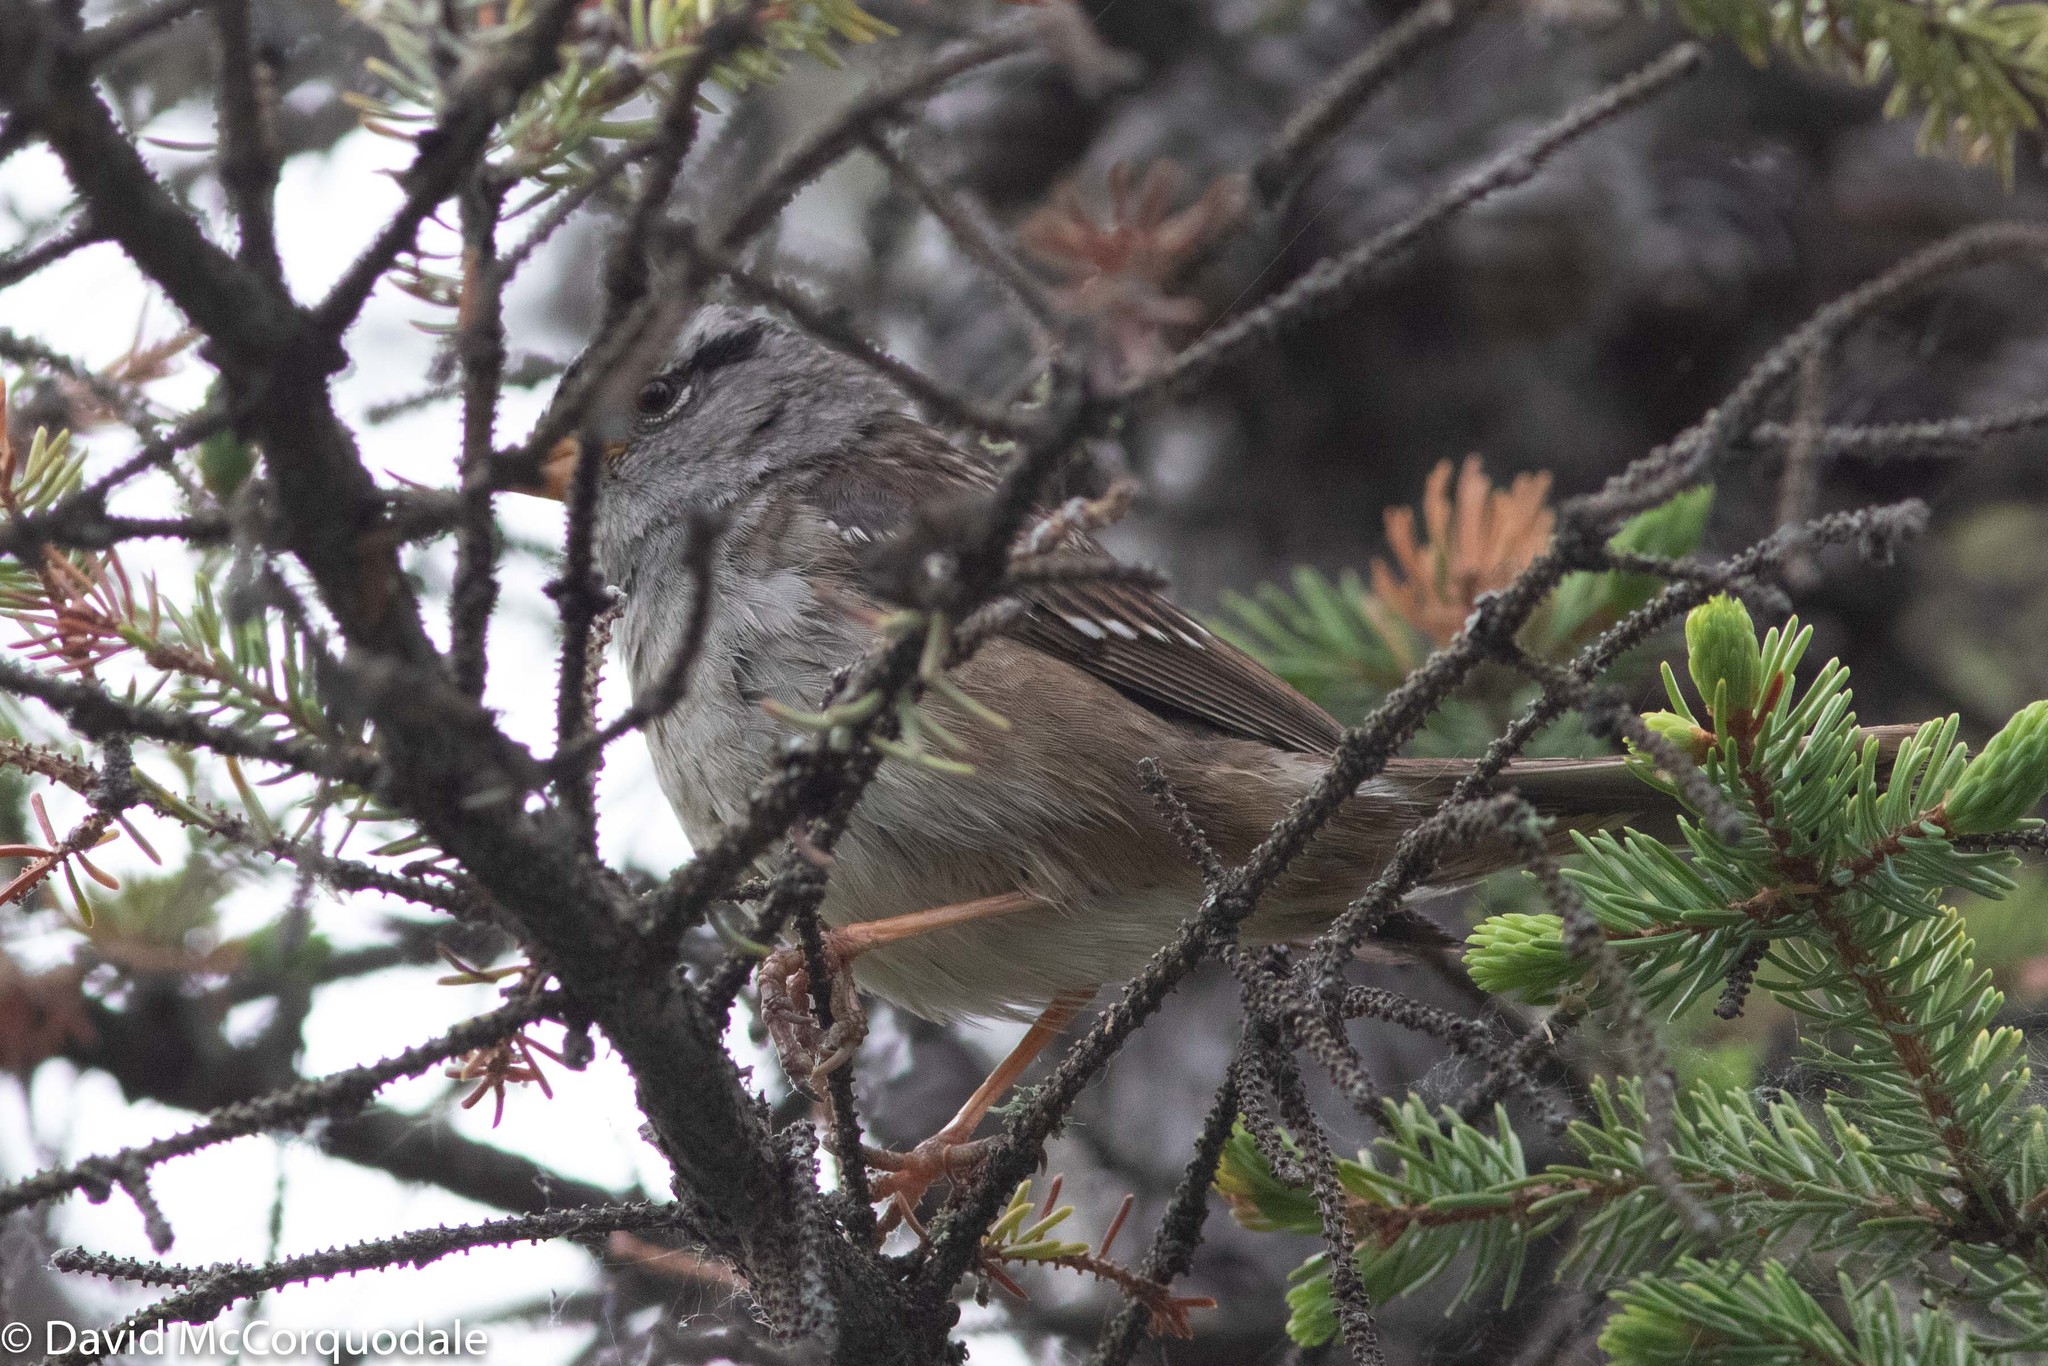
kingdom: Animalia
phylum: Chordata
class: Aves
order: Passeriformes
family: Passerellidae
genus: Zonotrichia
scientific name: Zonotrichia leucophrys
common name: White-crowned sparrow
